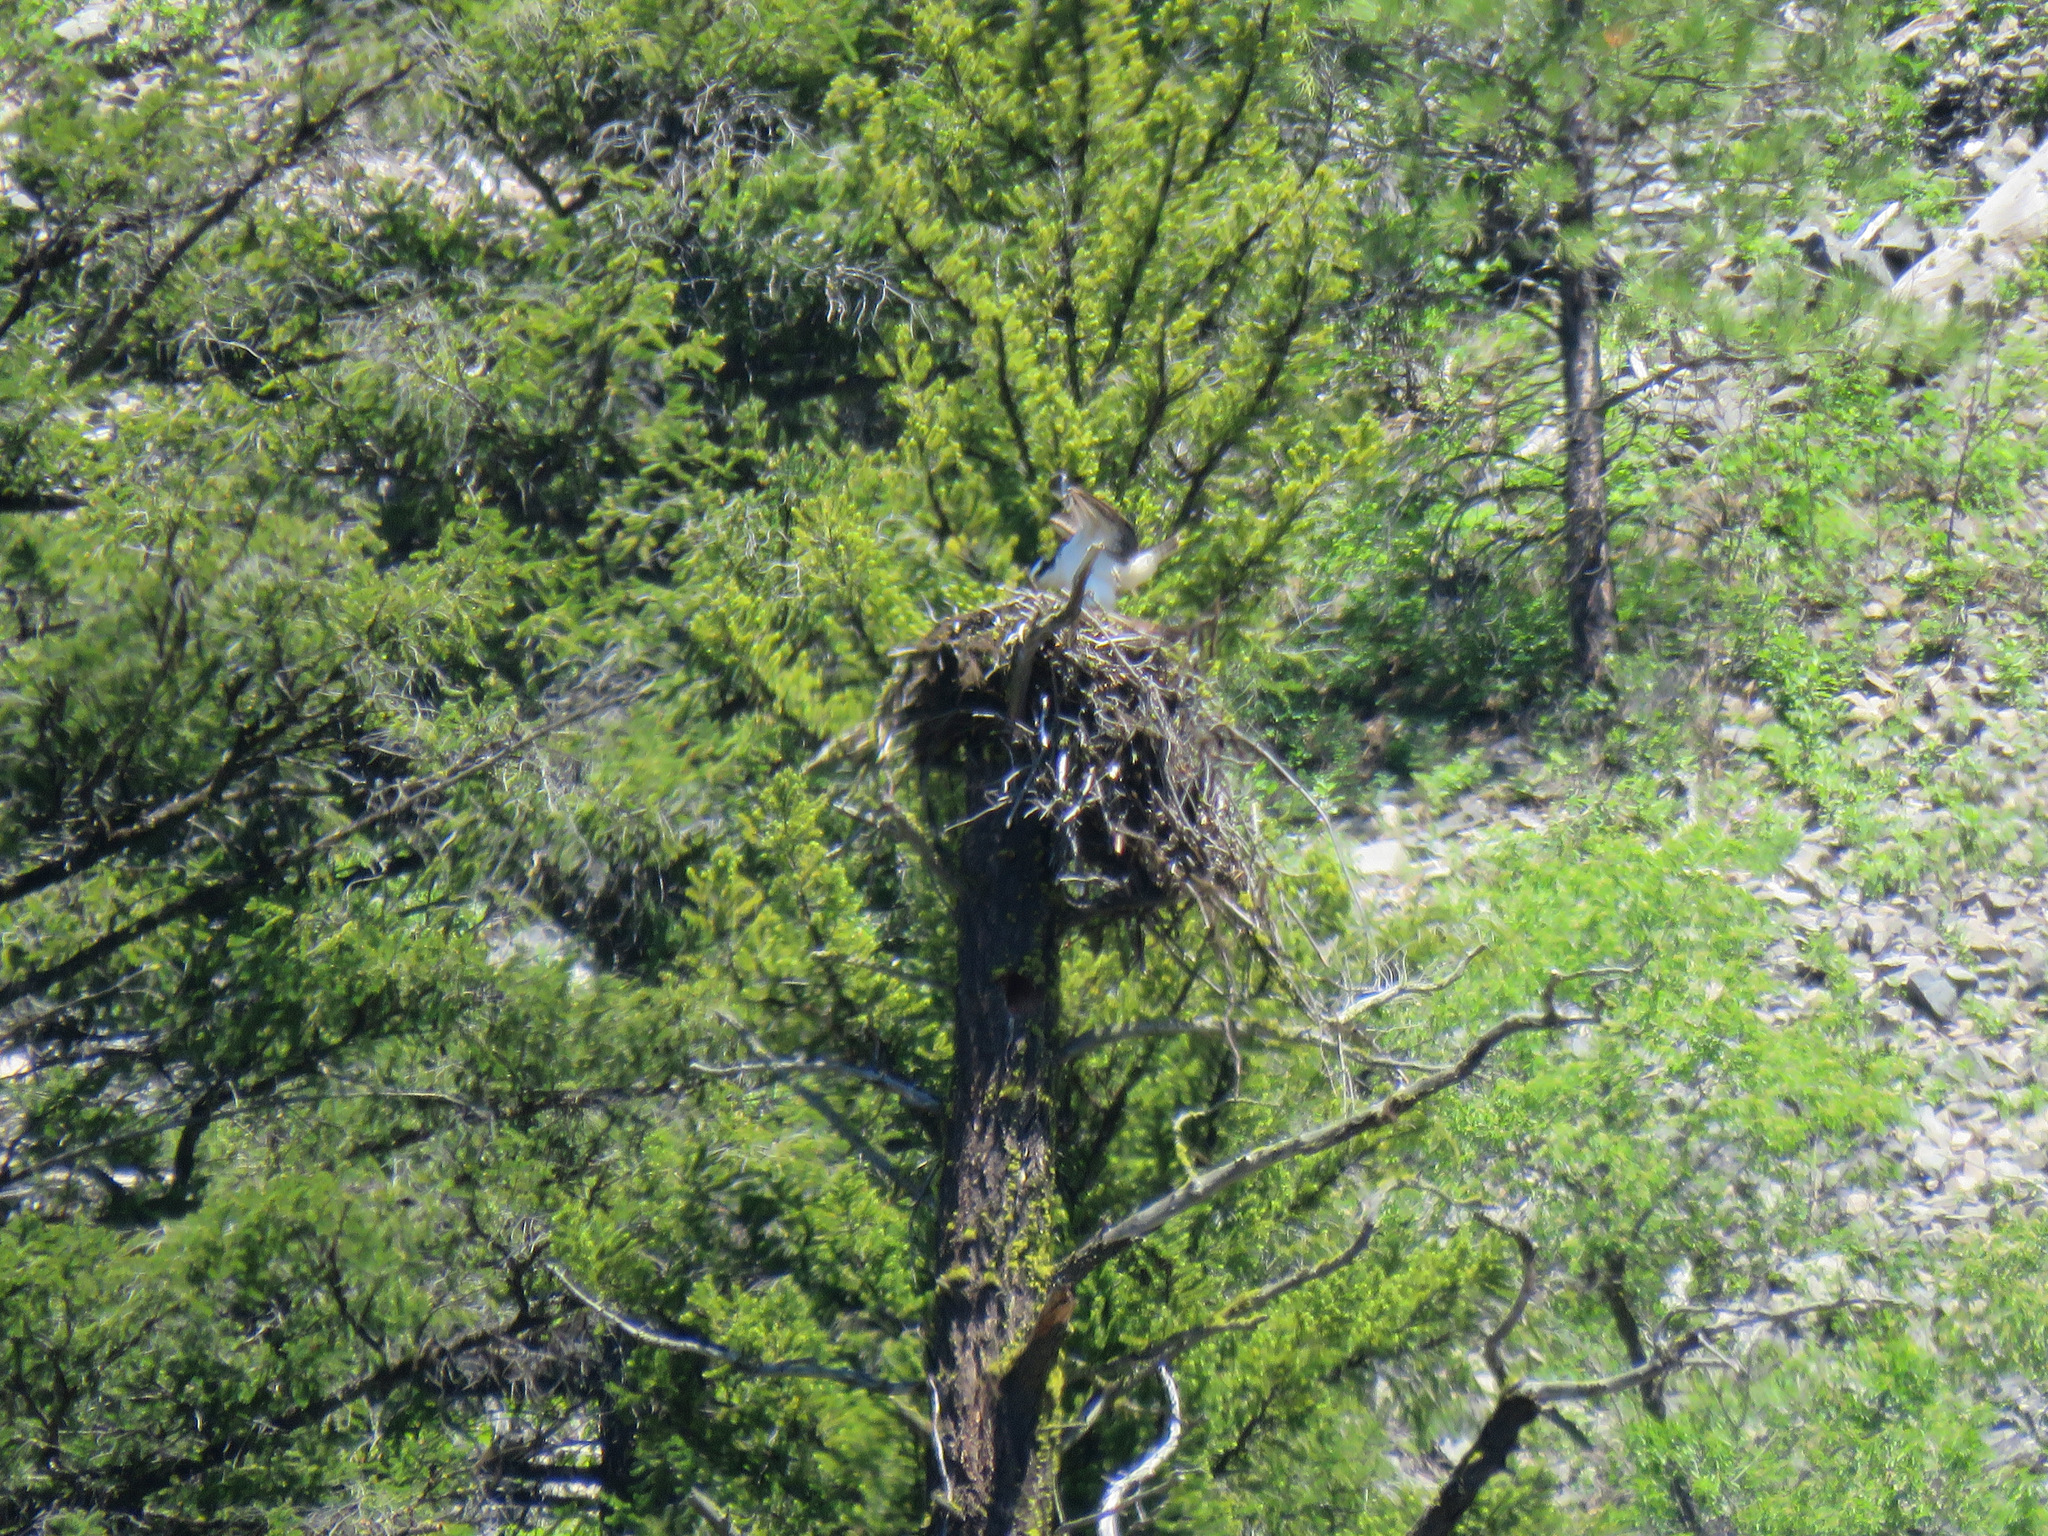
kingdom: Animalia
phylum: Chordata
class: Aves
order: Accipitriformes
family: Pandionidae
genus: Pandion
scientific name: Pandion haliaetus
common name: Osprey
